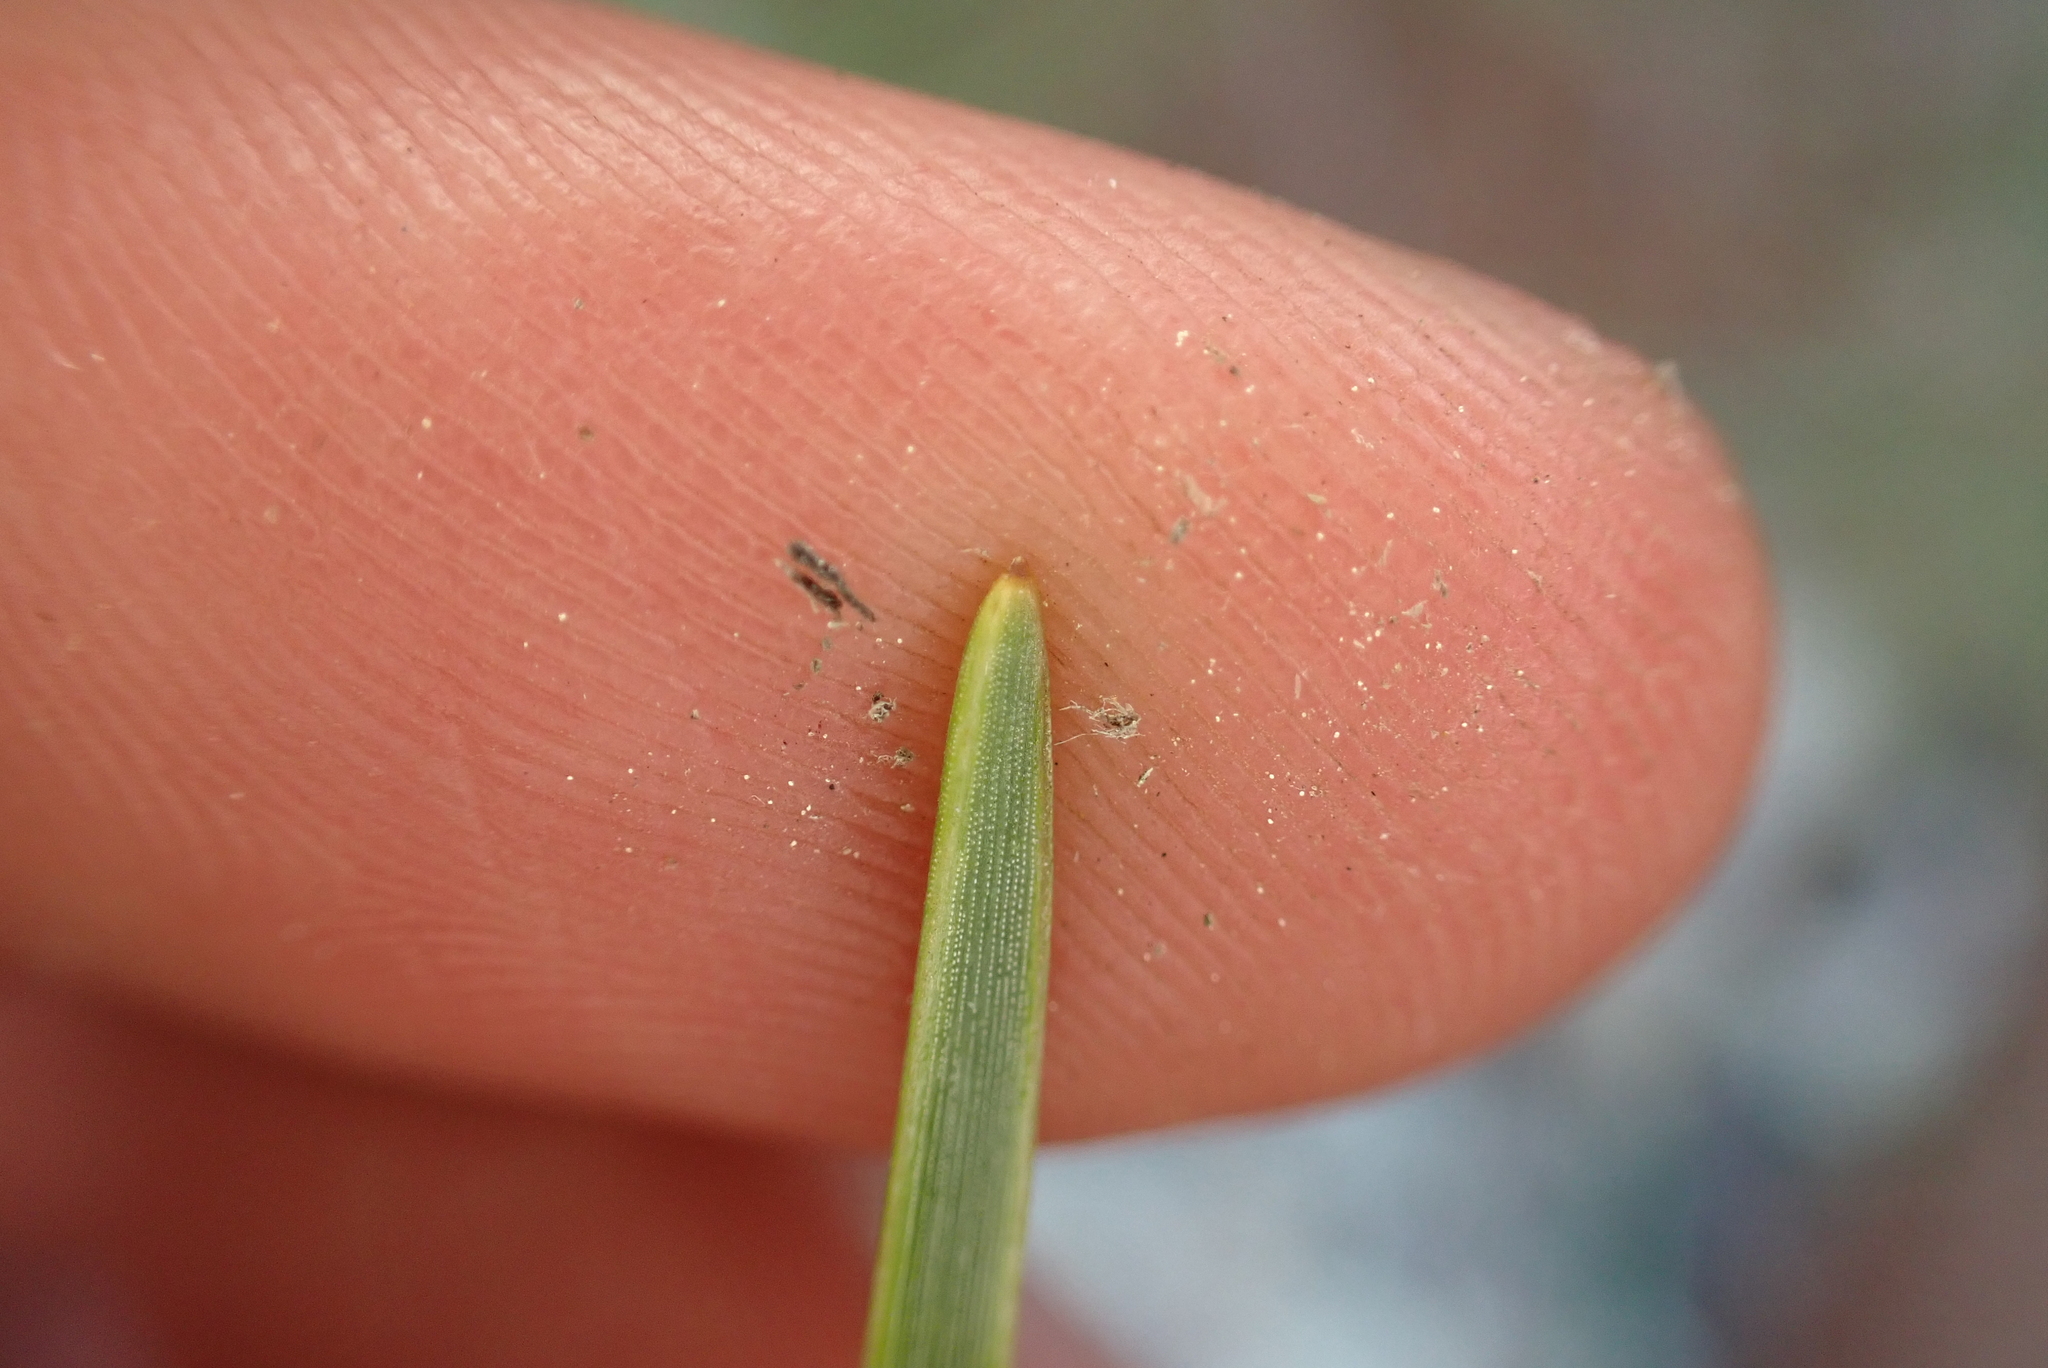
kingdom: Plantae
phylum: Tracheophyta
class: Pinopsida
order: Pinales
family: Pinaceae
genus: Pinus
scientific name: Pinus pinaster
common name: Maritime pine
